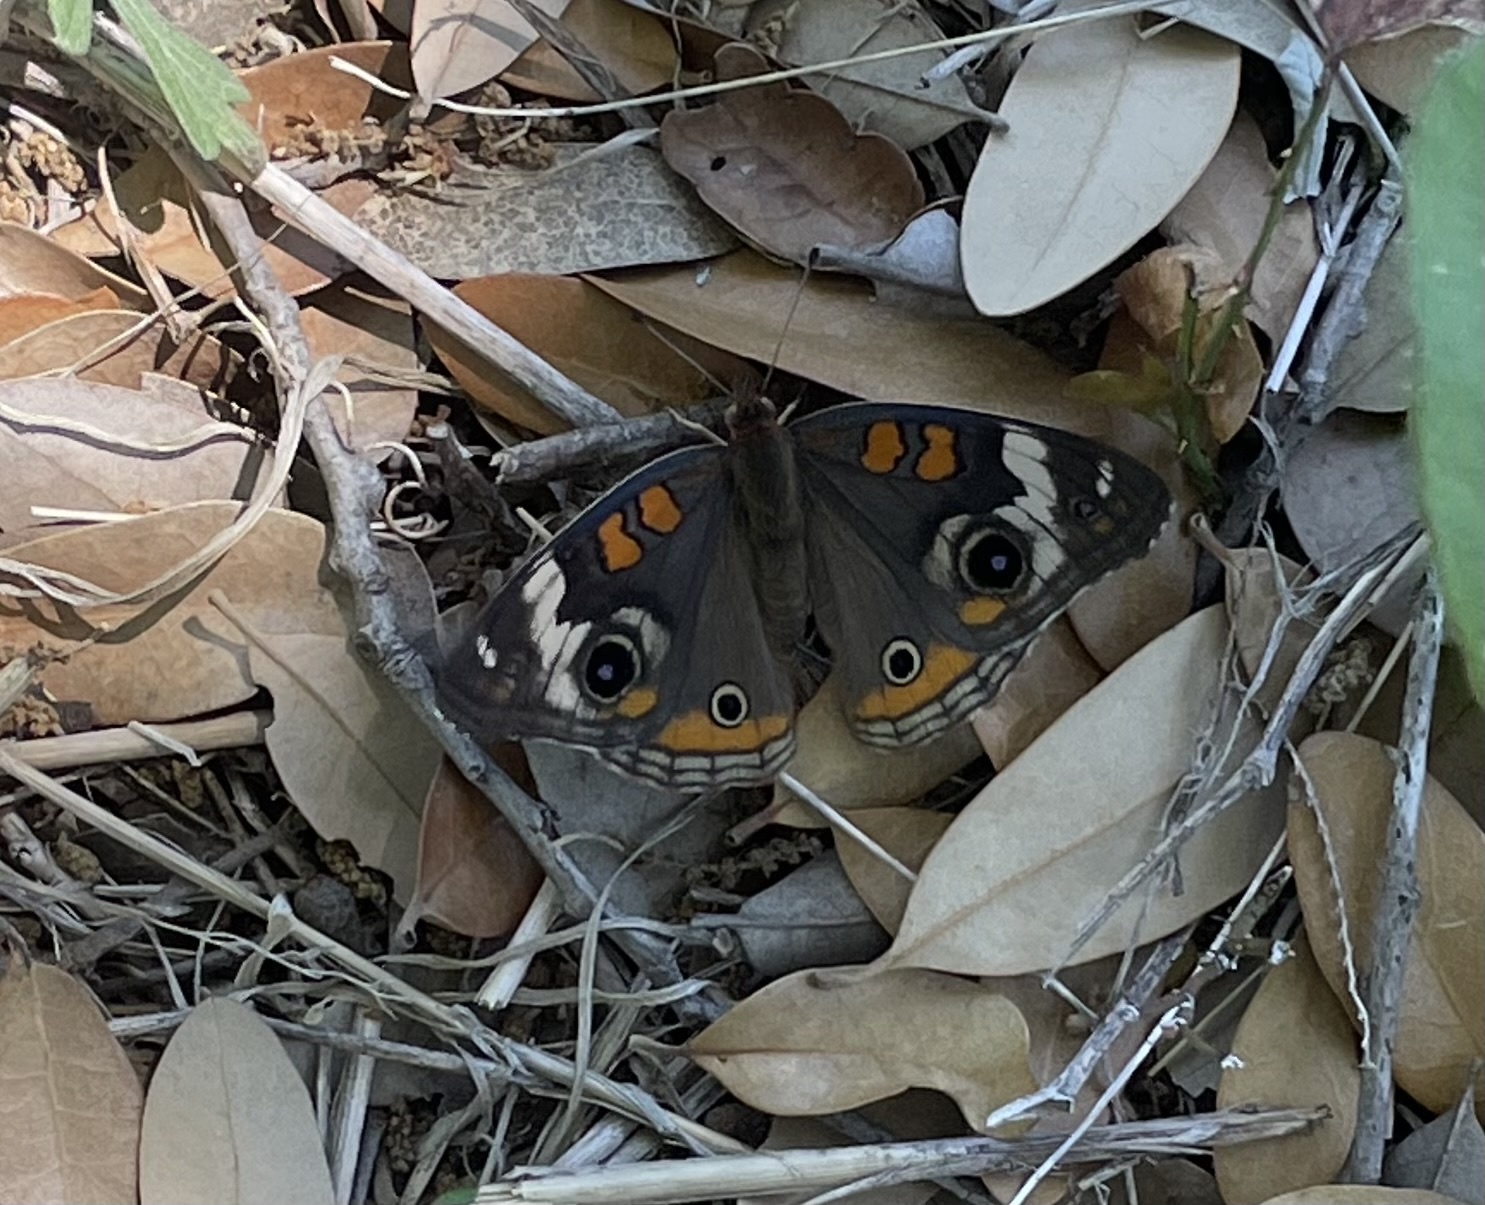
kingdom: Animalia
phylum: Arthropoda
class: Insecta
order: Lepidoptera
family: Nymphalidae
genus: Junonia
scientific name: Junonia coenia
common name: Common buckeye
